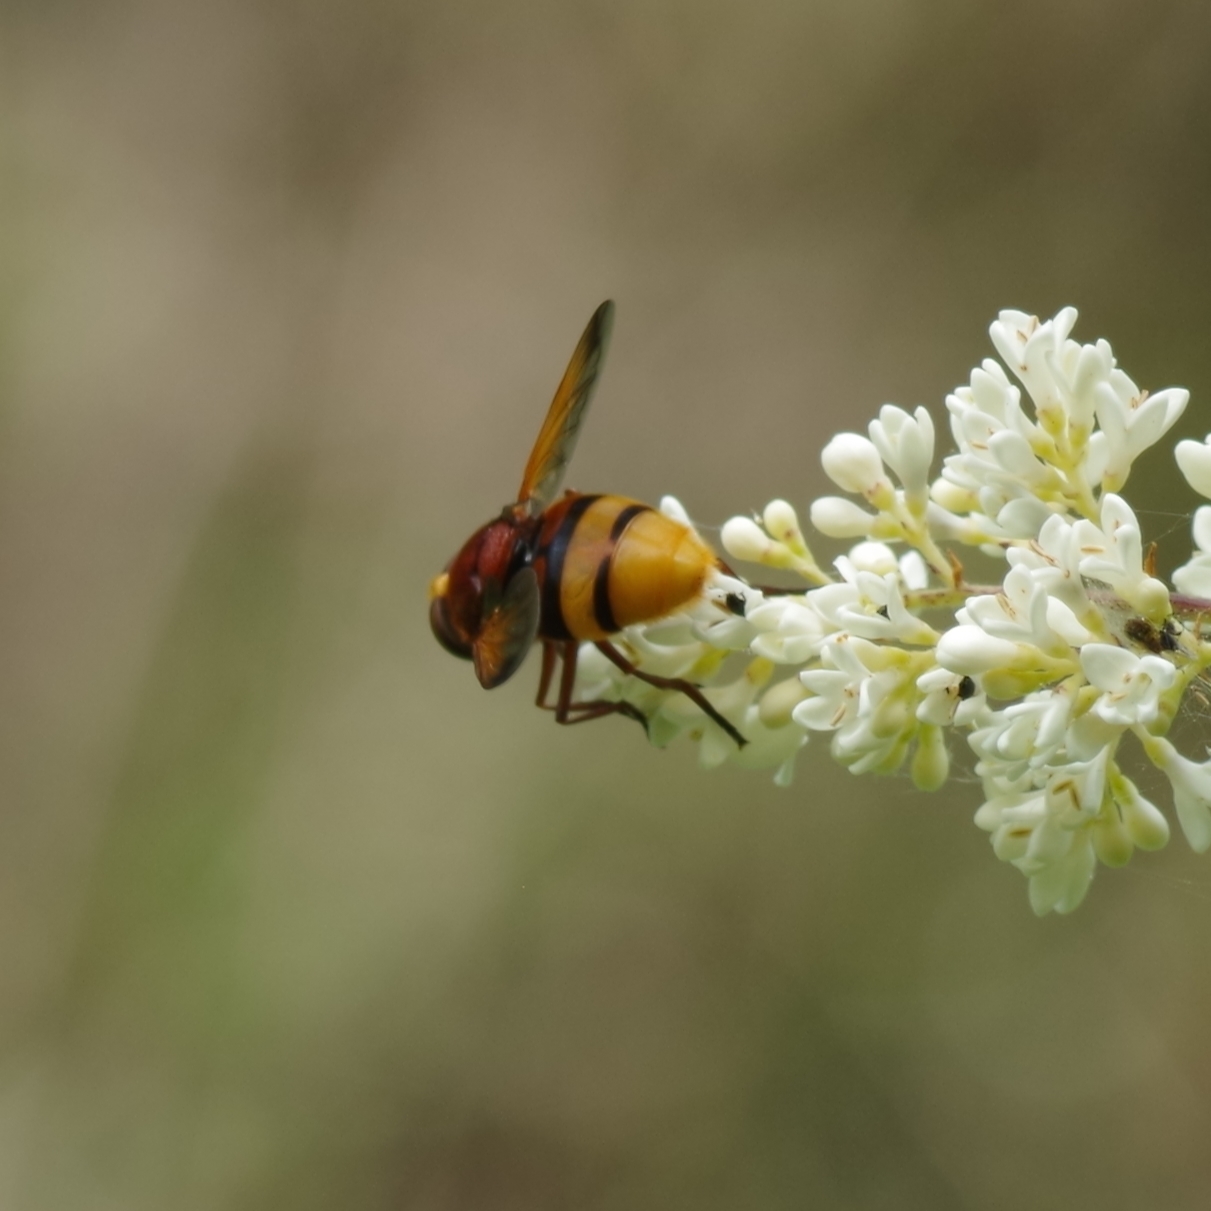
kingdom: Animalia
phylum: Arthropoda
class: Insecta
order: Diptera
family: Syrphidae
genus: Volucella
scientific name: Volucella zonaria
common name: Hornet hoverfly
